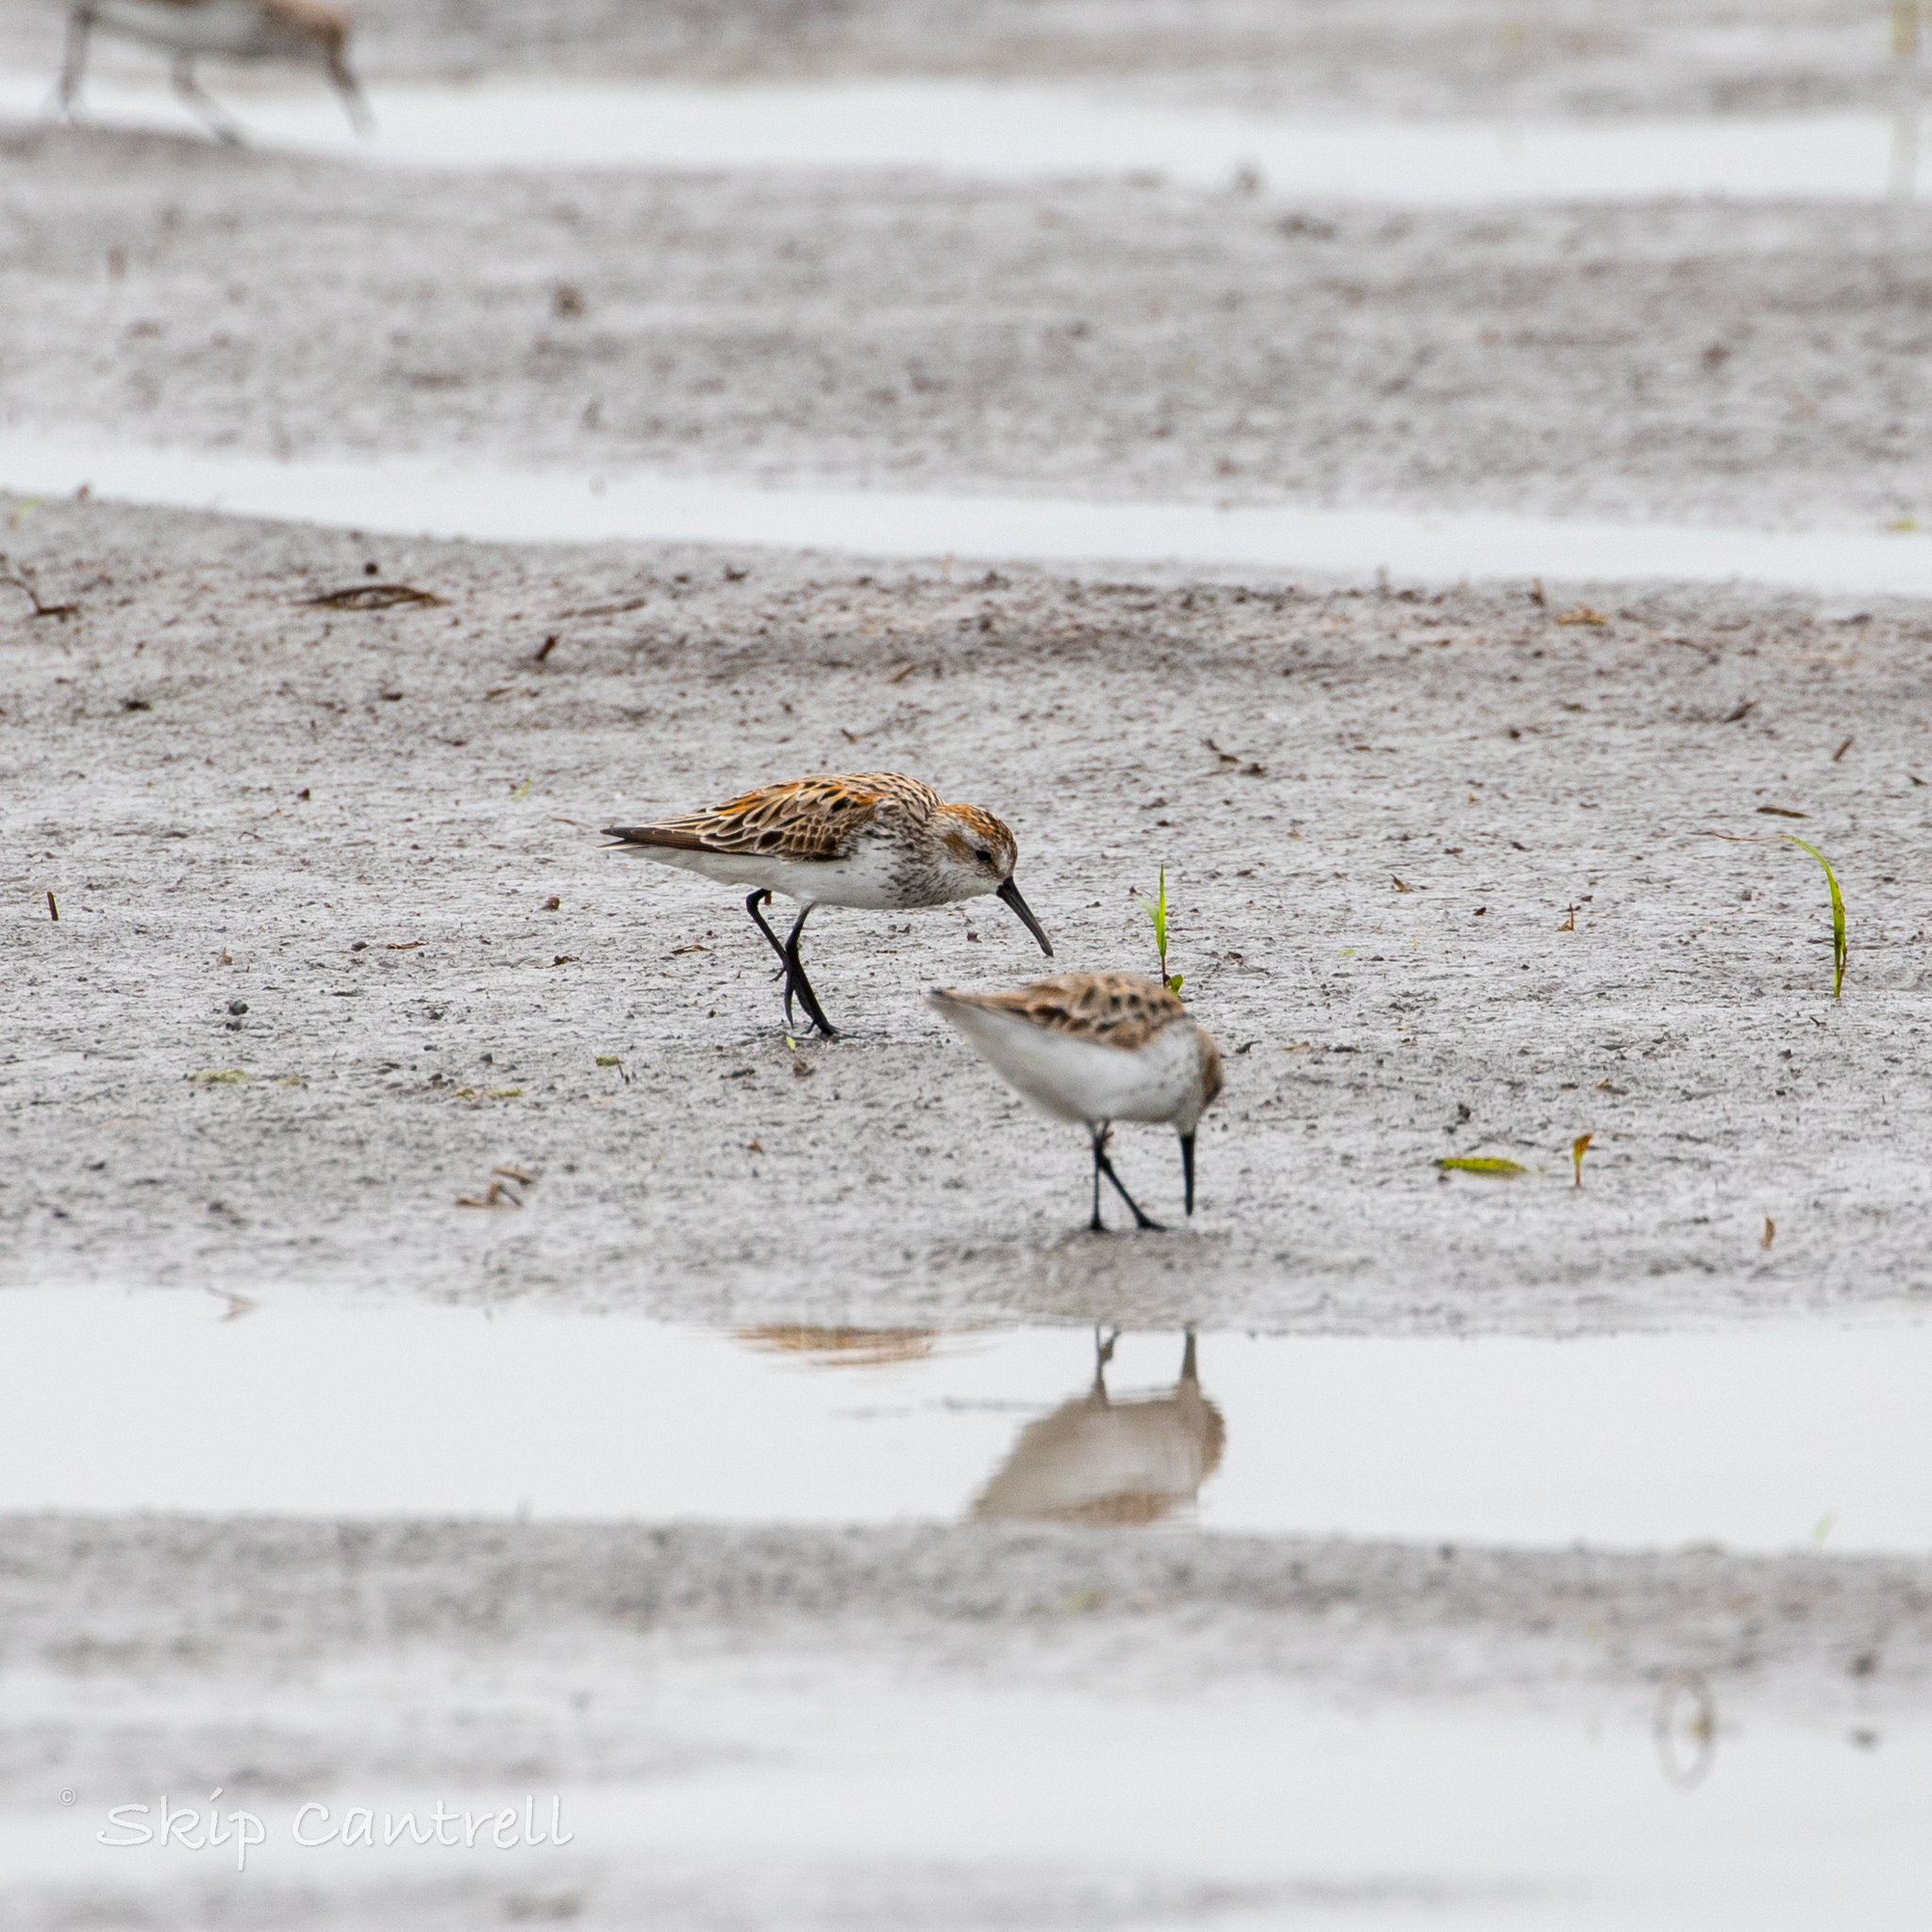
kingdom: Animalia
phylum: Chordata
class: Aves
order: Charadriiformes
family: Scolopacidae
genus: Calidris
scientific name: Calidris mauri
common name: Western sandpiper
